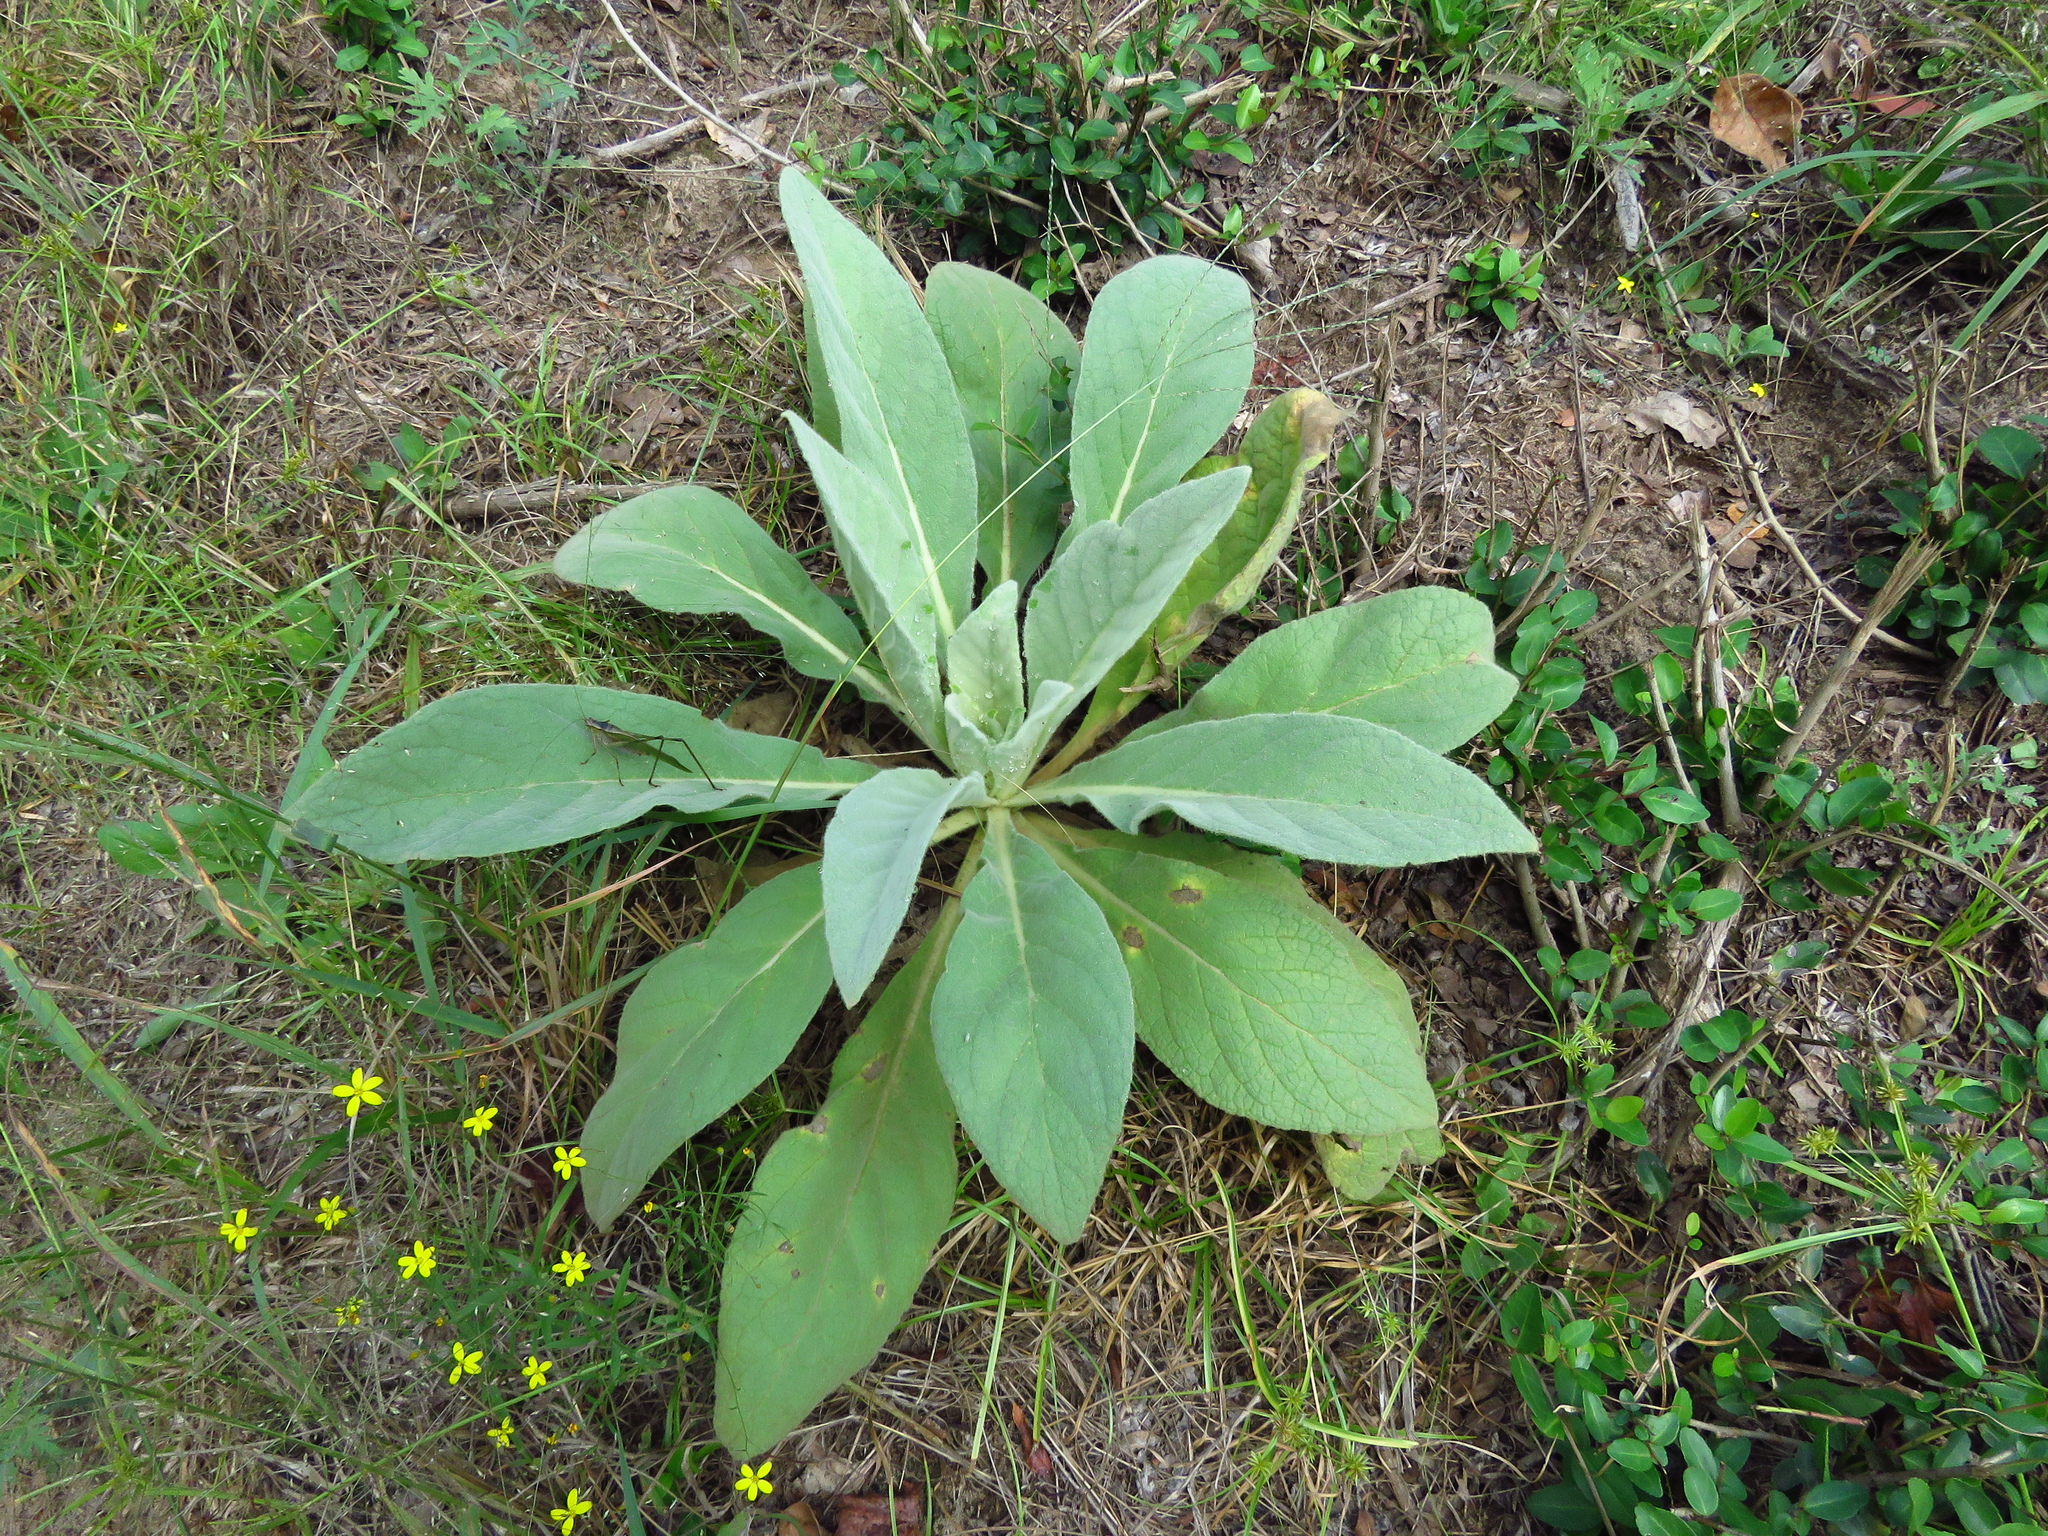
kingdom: Plantae
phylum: Tracheophyta
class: Magnoliopsida
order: Lamiales
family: Scrophulariaceae
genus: Verbascum
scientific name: Verbascum thapsus
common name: Common mullein
